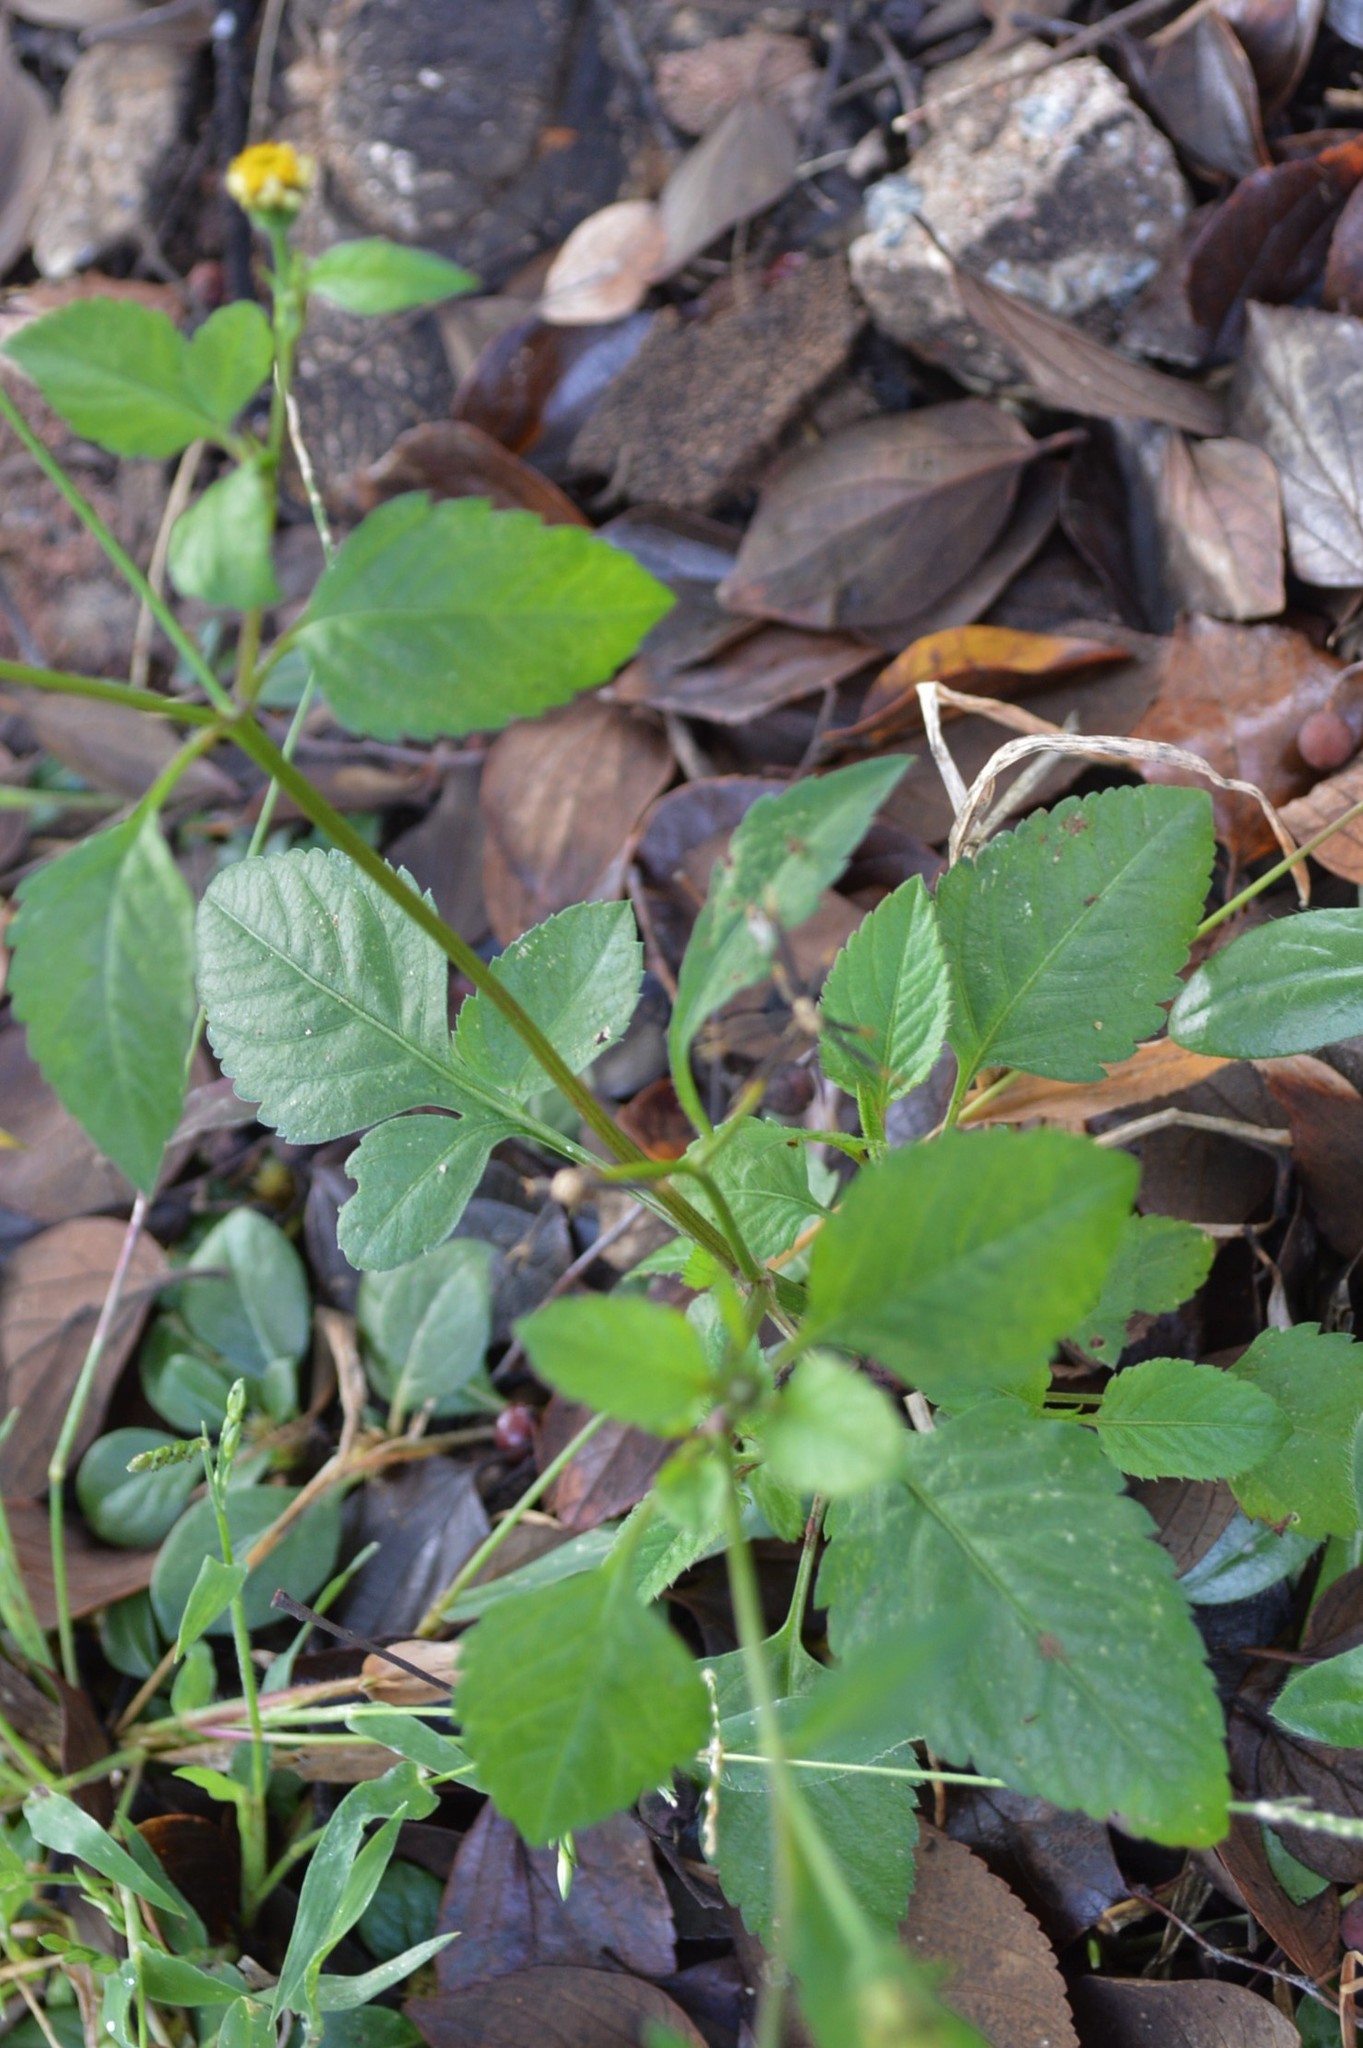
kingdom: Plantae
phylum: Tracheophyta
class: Magnoliopsida
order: Asterales
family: Asteraceae
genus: Bidens
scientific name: Bidens pilosa
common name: Black-jack
